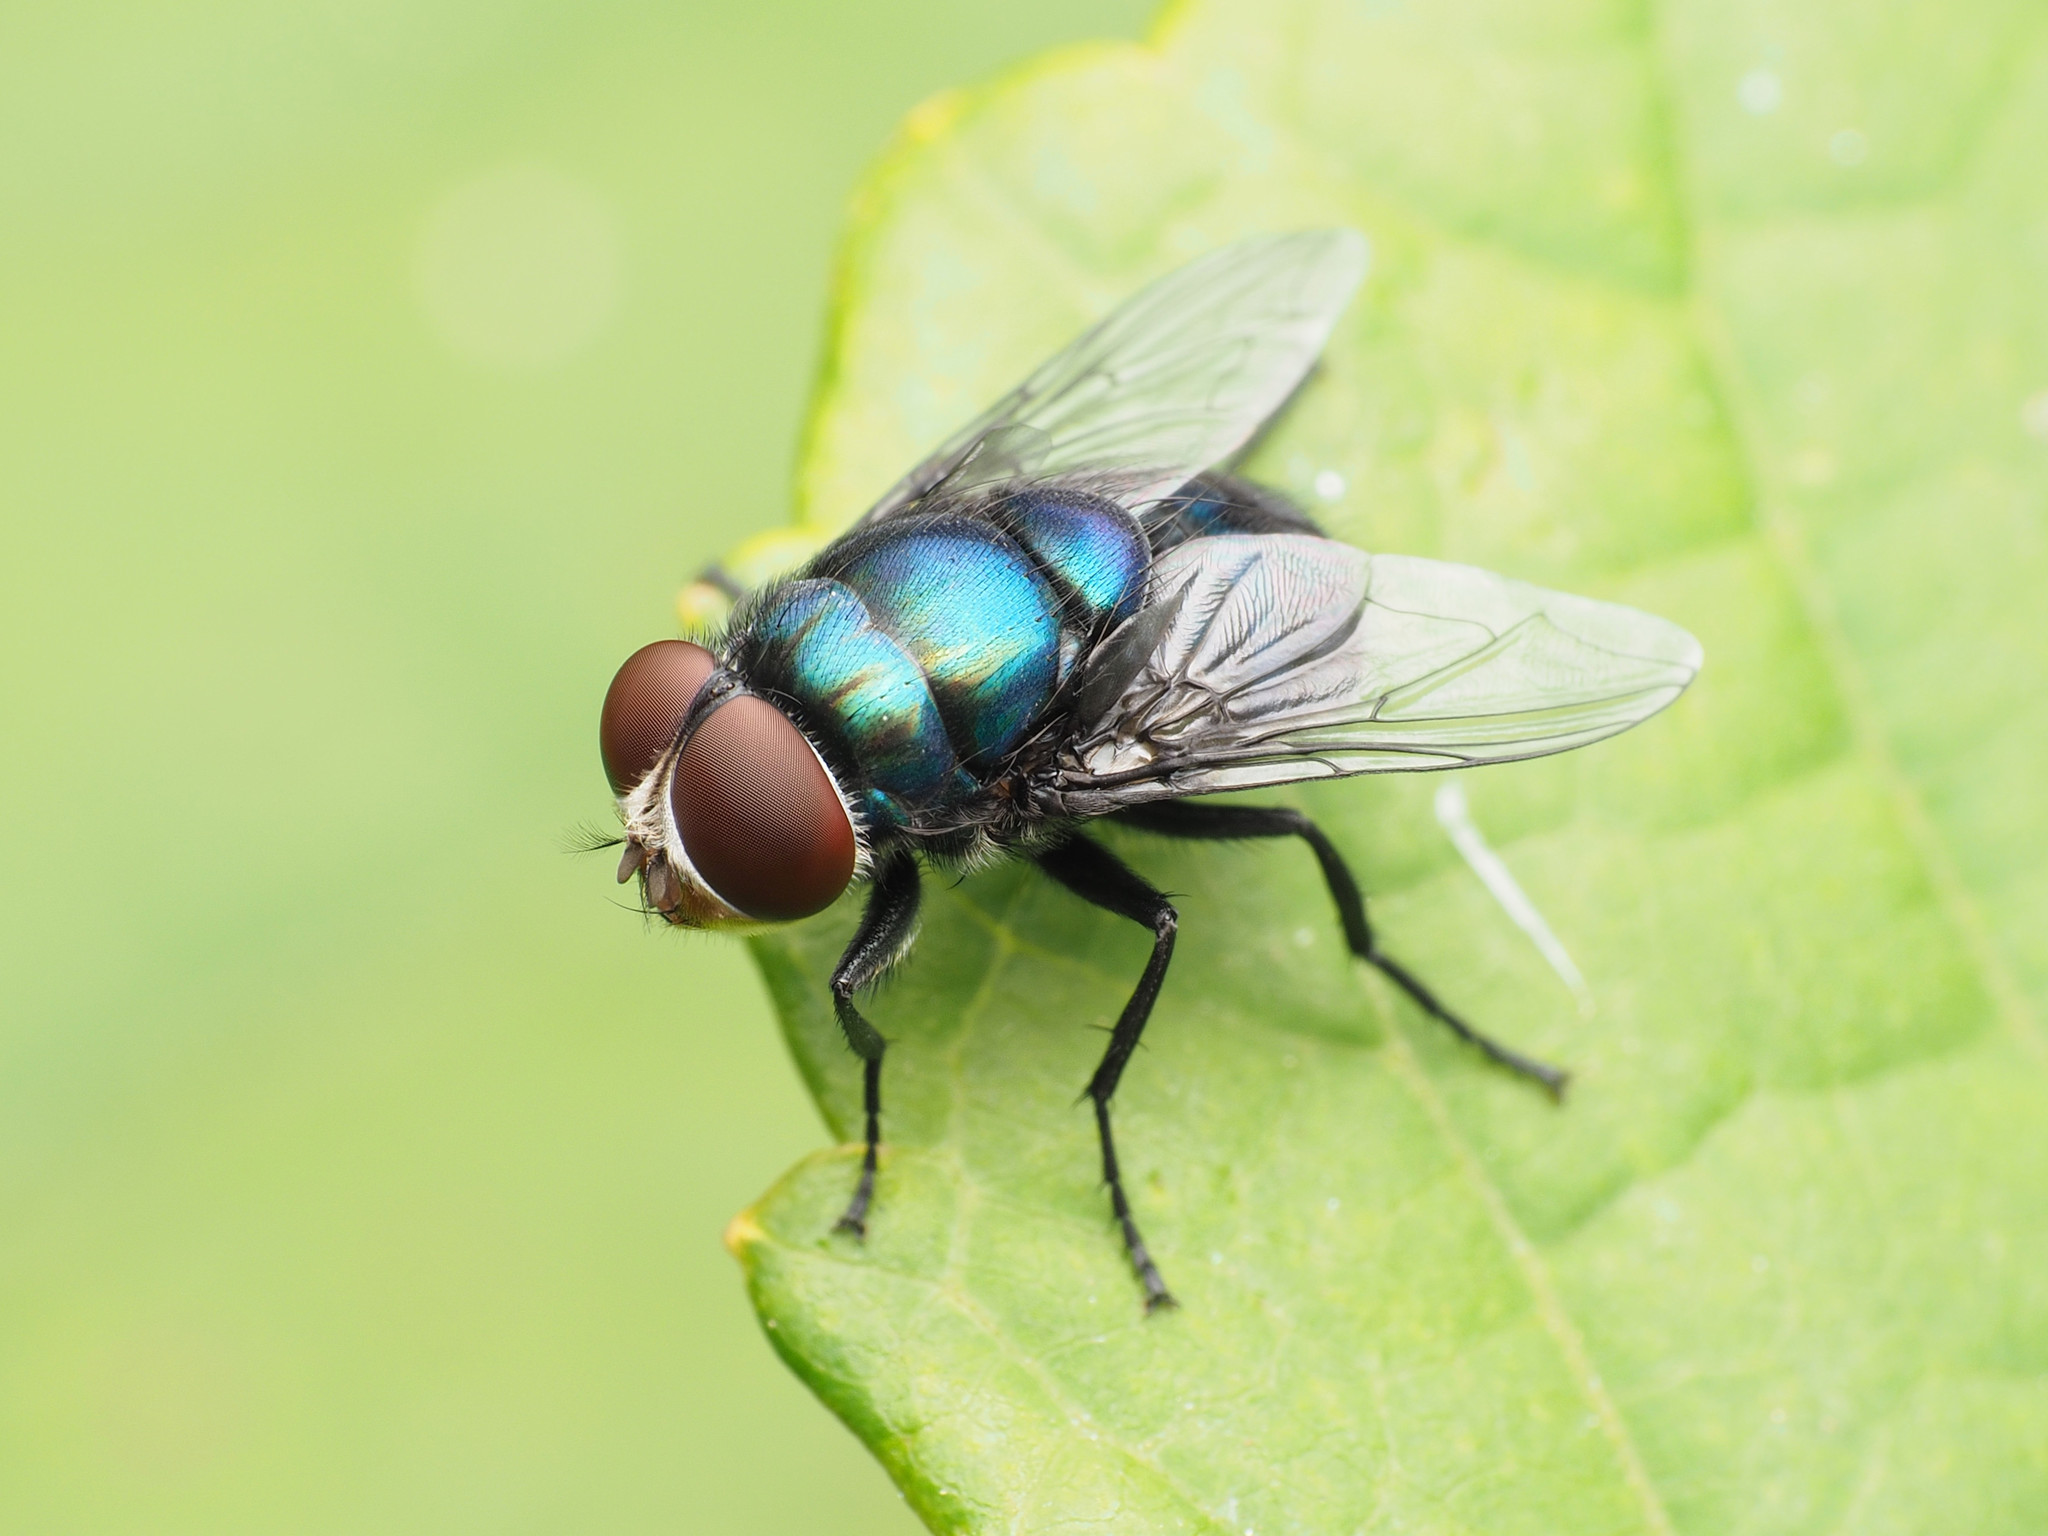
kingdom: Animalia
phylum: Arthropoda
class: Insecta
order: Diptera
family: Calliphoridae
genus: Chrysomya
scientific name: Chrysomya rufifacies
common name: Blow fly
